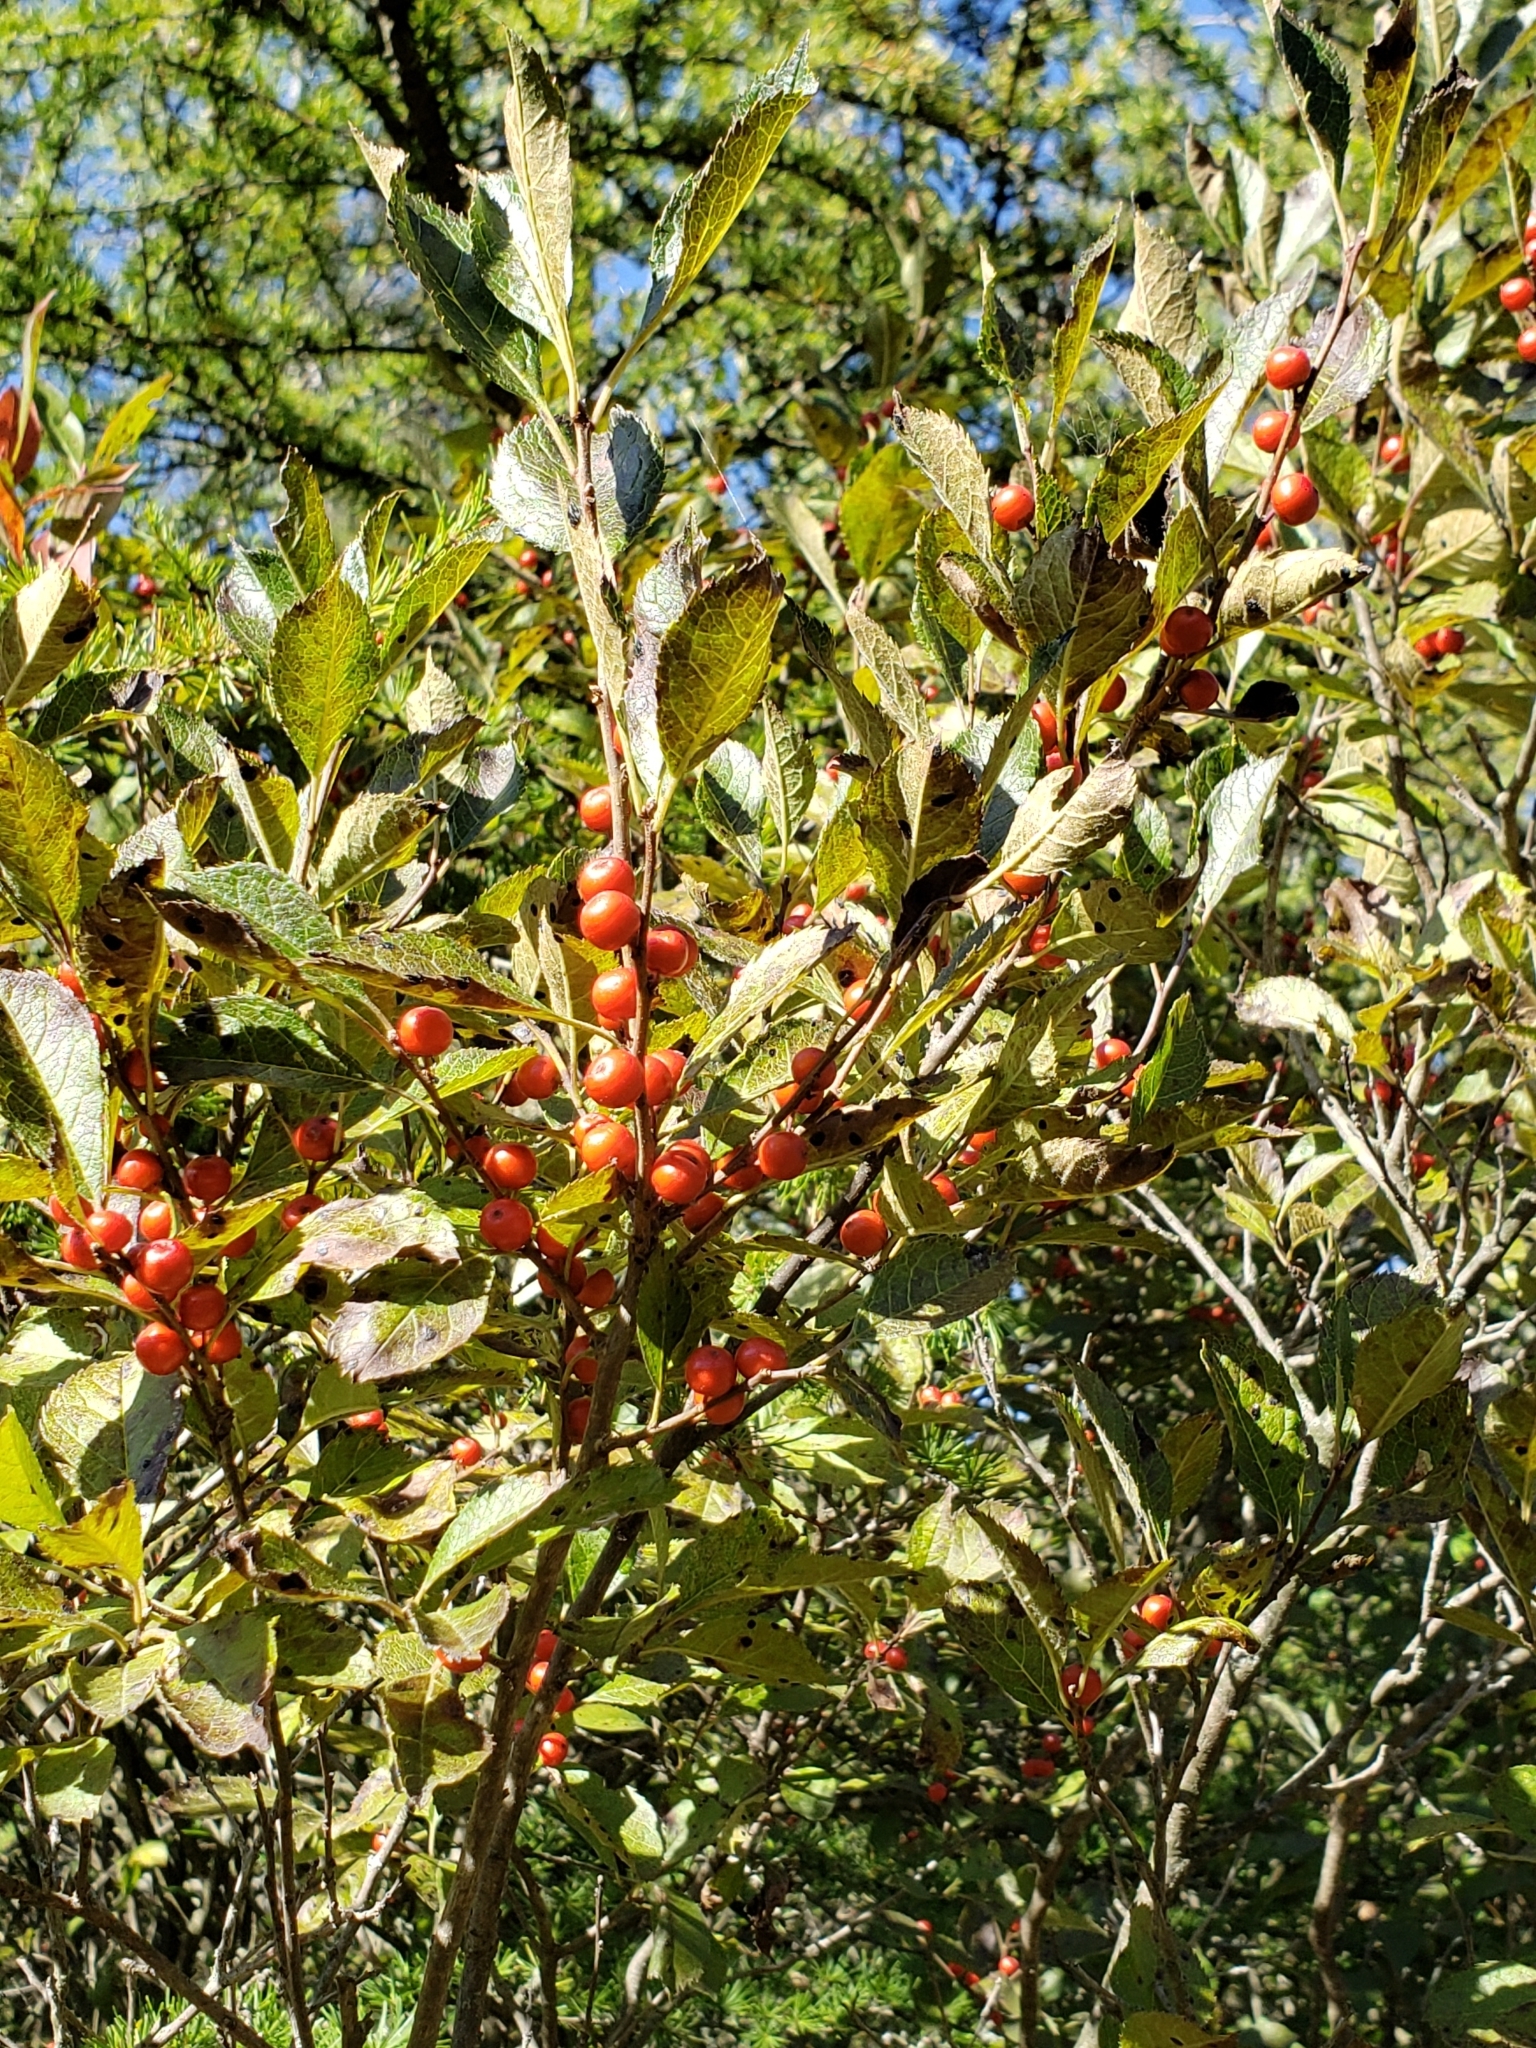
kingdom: Plantae
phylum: Tracheophyta
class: Magnoliopsida
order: Aquifoliales
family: Aquifoliaceae
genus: Ilex
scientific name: Ilex verticillata
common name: Virginia winterberry
